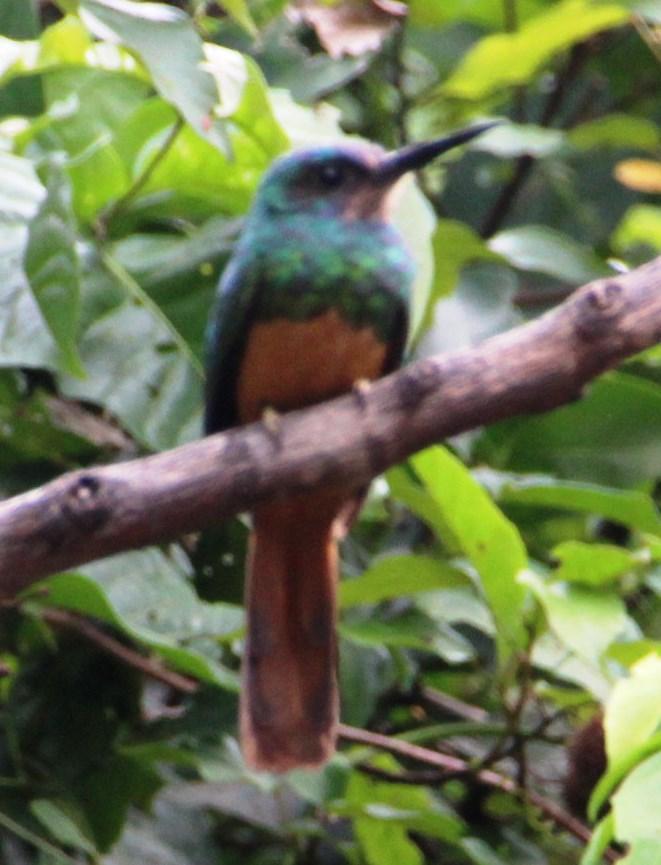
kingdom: Animalia
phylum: Chordata
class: Aves
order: Piciformes
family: Galbulidae
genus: Galbula
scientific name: Galbula cyanescens
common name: Bluish-fronted jacamar
